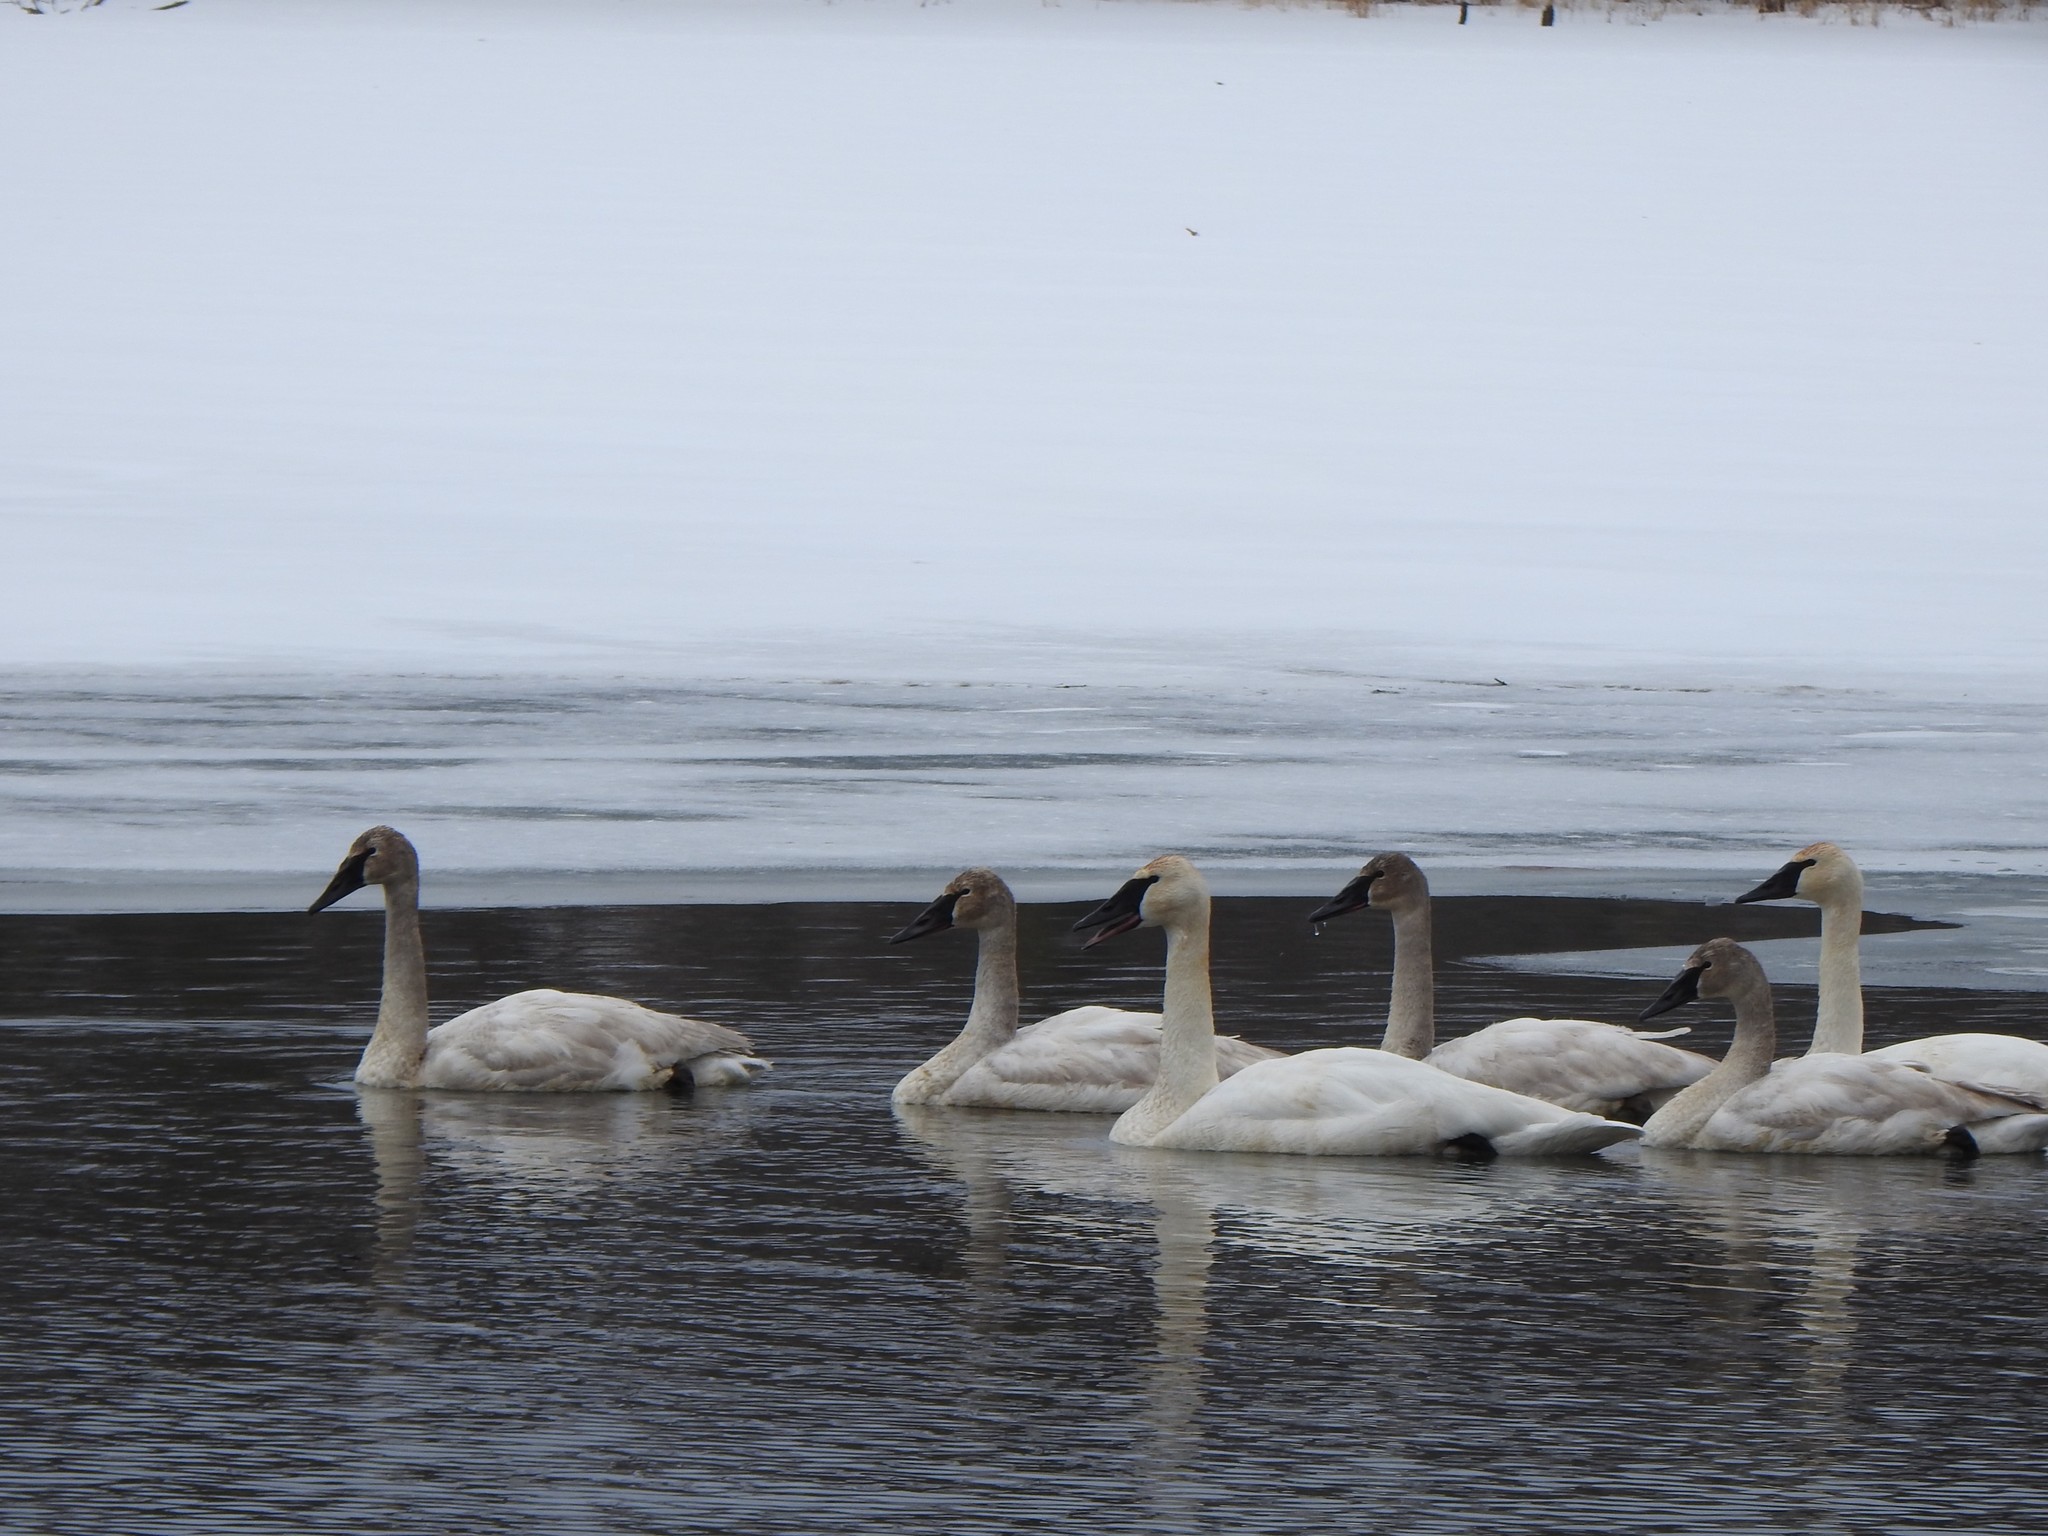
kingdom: Animalia
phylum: Chordata
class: Aves
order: Anseriformes
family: Anatidae
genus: Cygnus
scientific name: Cygnus buccinator
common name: Trumpeter swan
